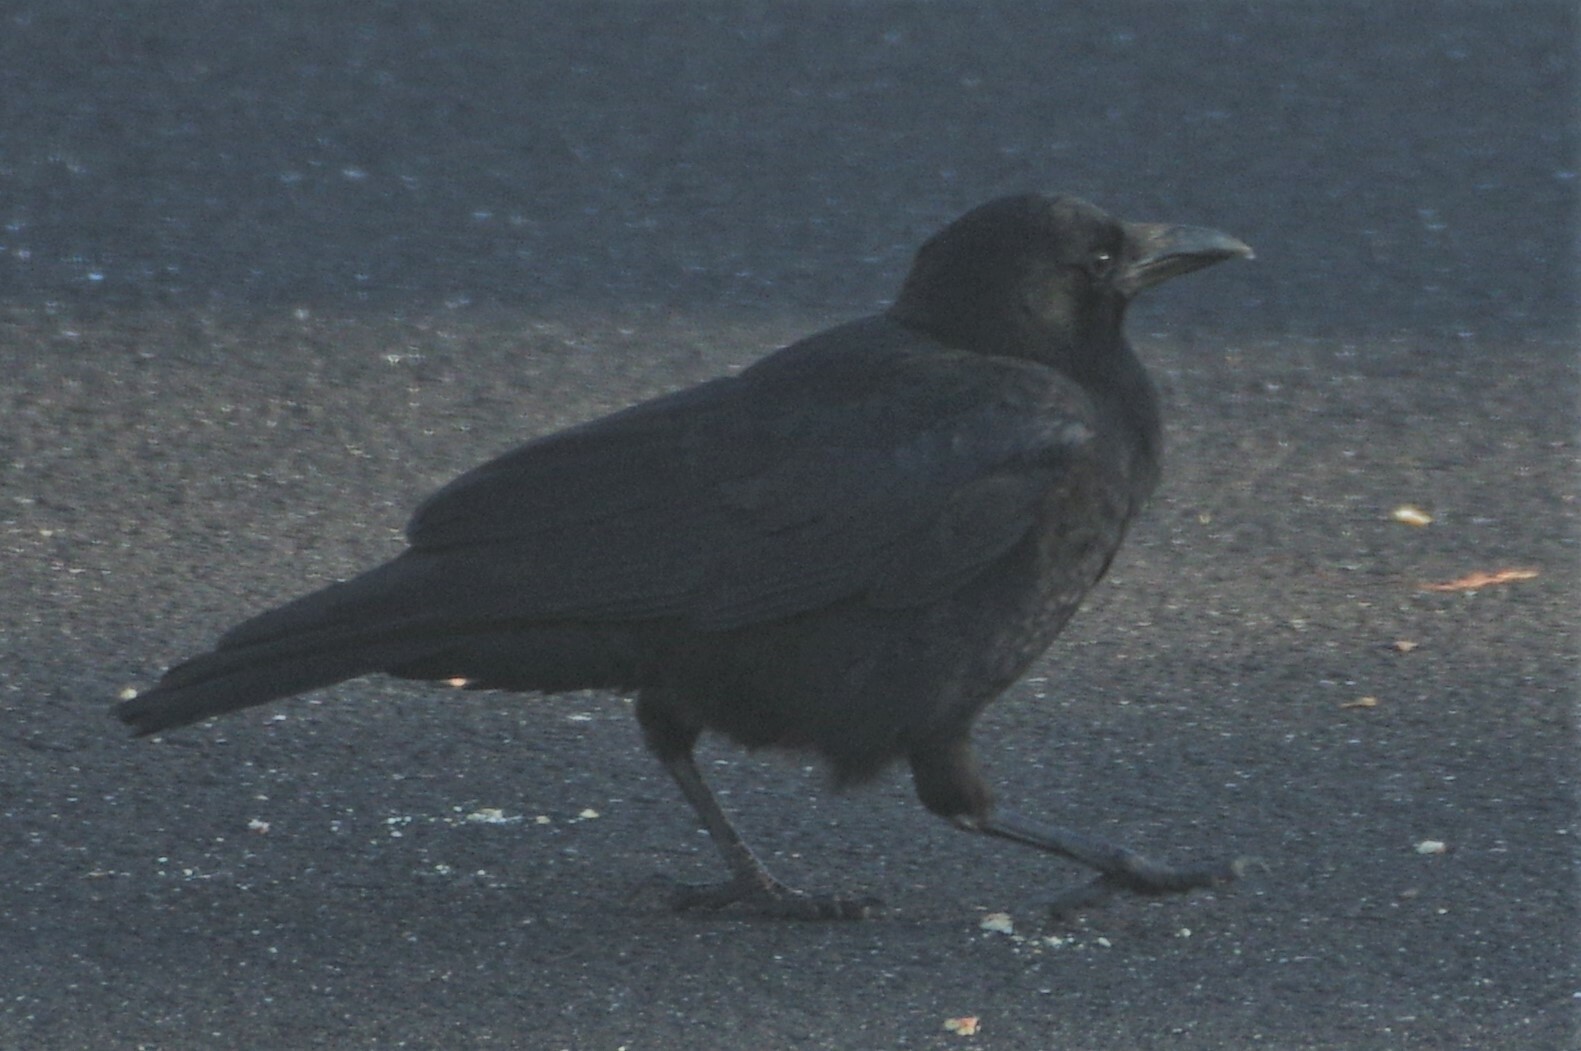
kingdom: Animalia
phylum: Chordata
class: Aves
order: Passeriformes
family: Corvidae
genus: Corvus
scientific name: Corvus brachyrhynchos
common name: American crow
